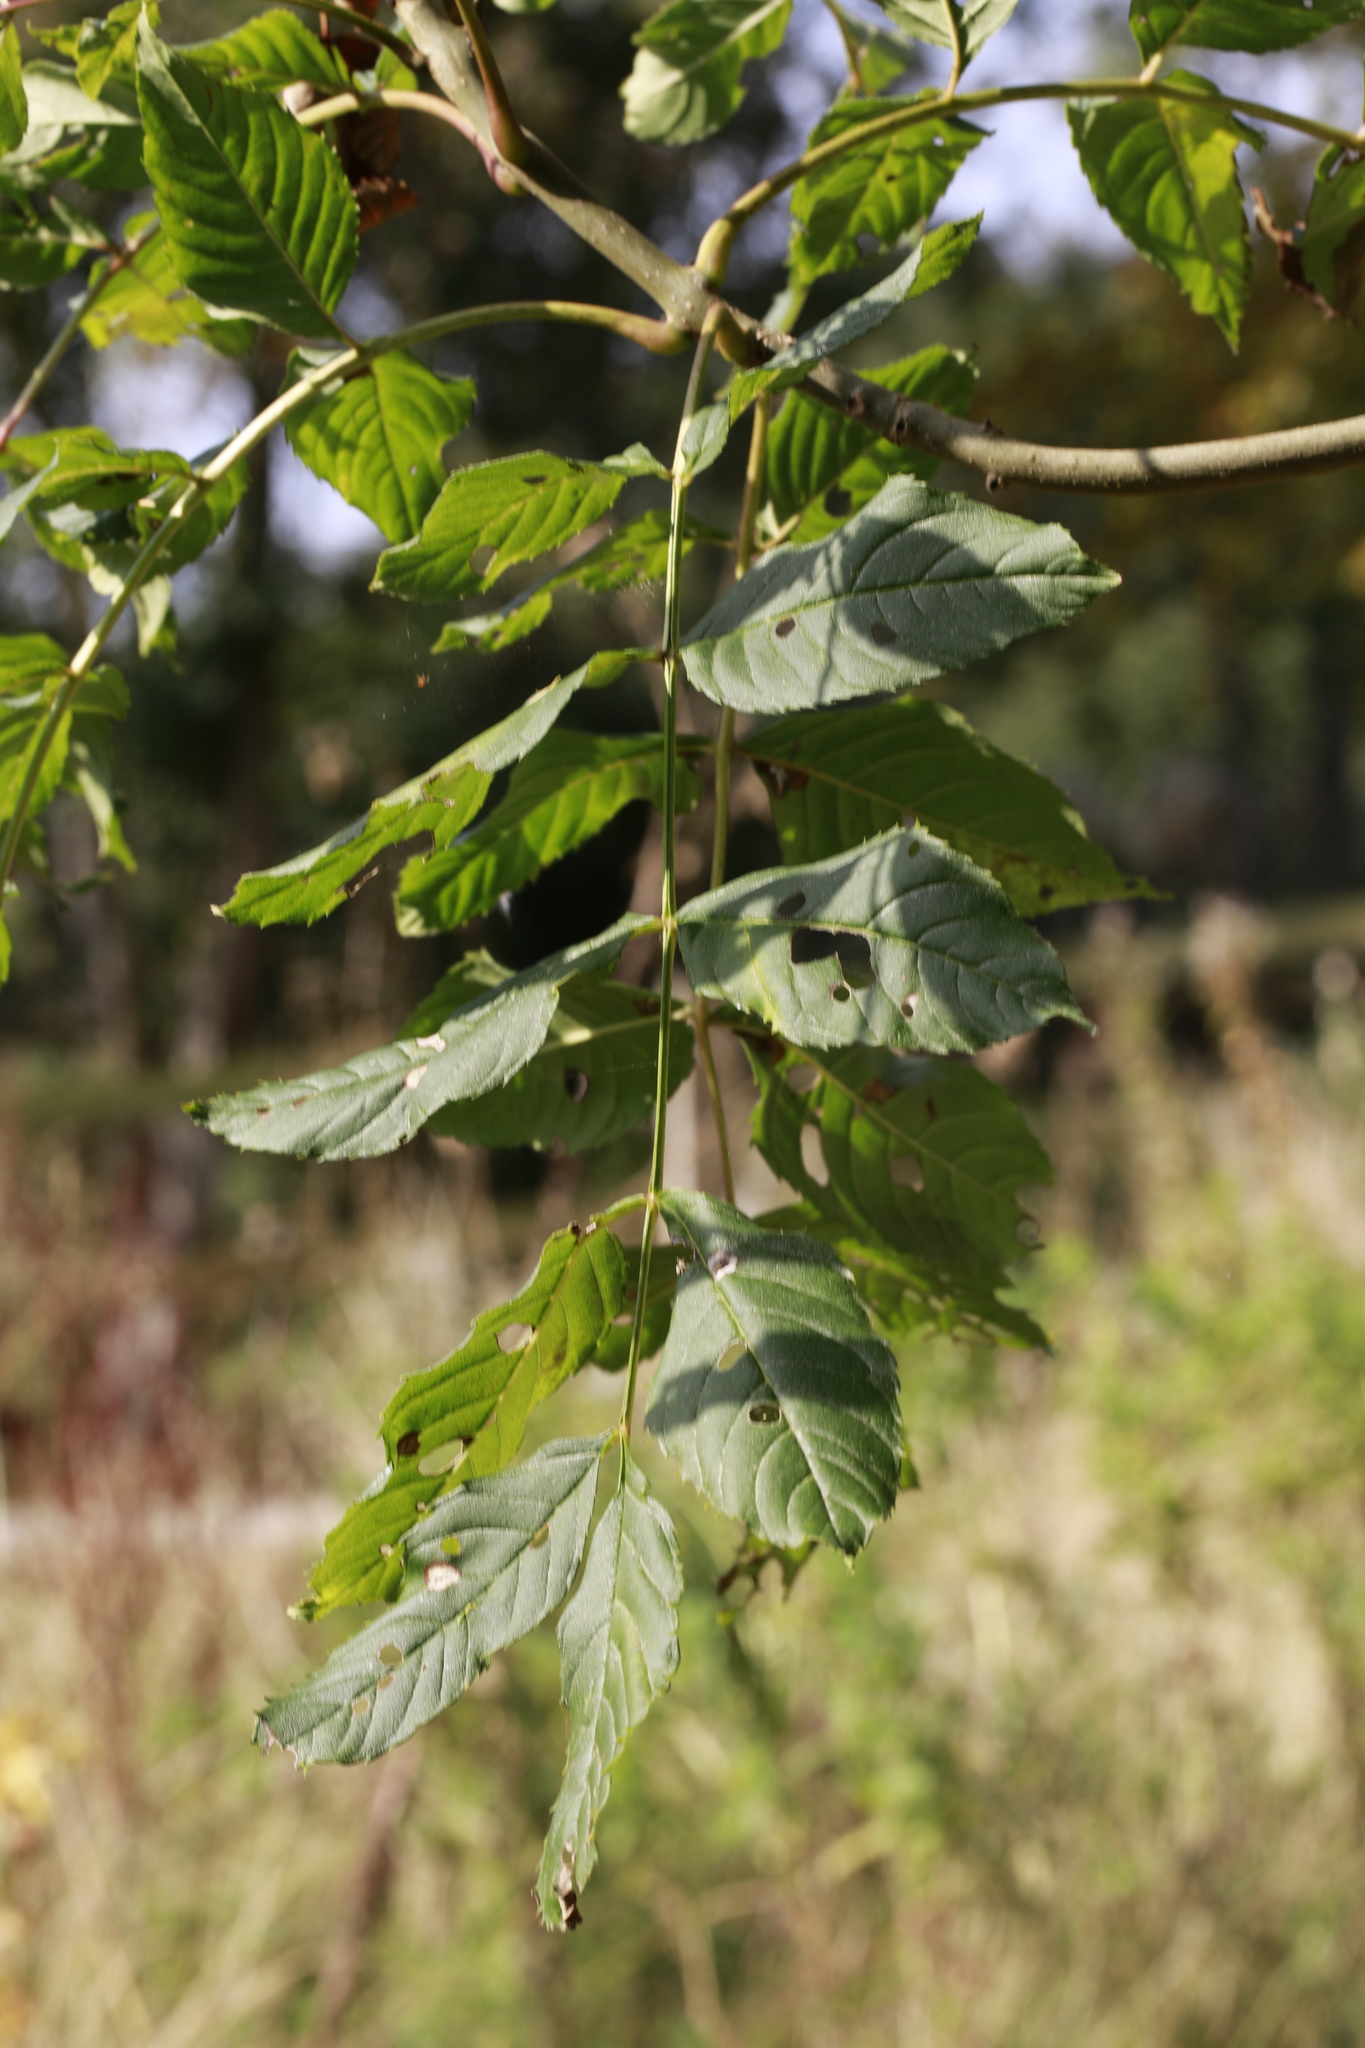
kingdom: Plantae
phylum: Tracheophyta
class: Magnoliopsida
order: Lamiales
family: Oleaceae
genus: Fraxinus
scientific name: Fraxinus excelsior
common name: European ash
